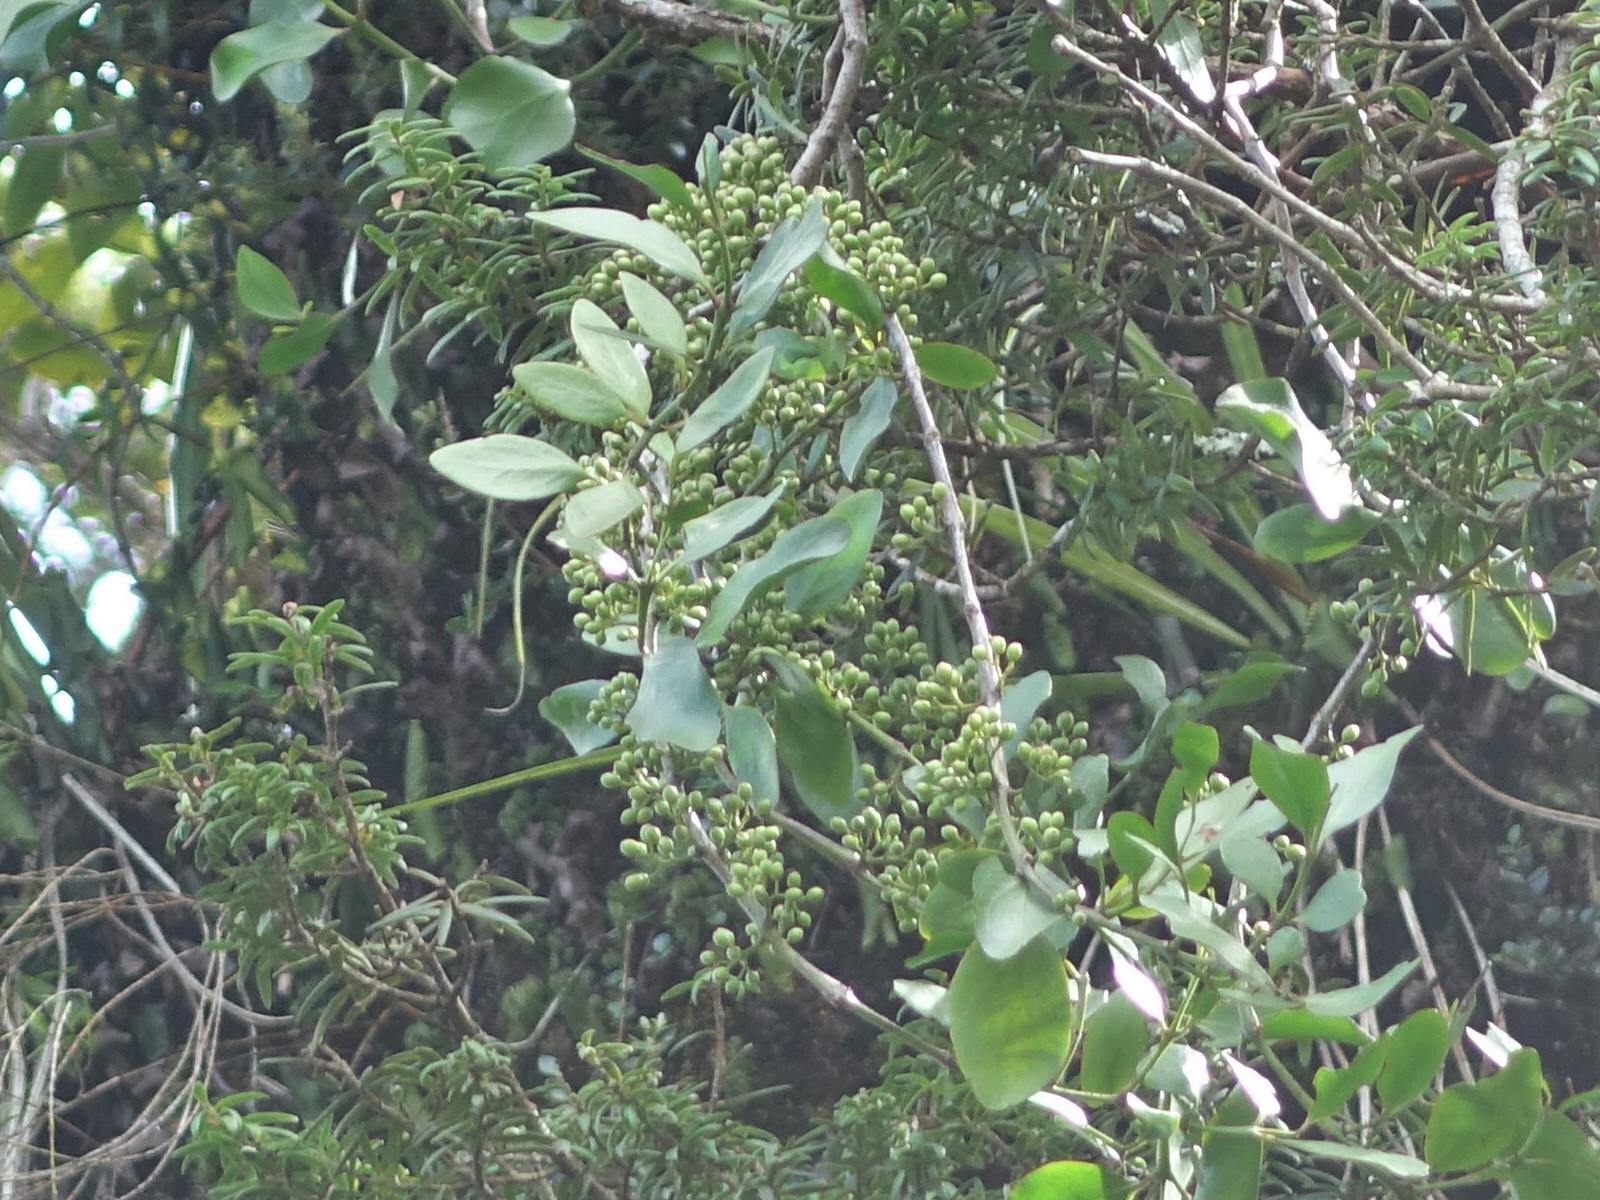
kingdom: Plantae
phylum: Tracheophyta
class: Magnoliopsida
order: Santalales
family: Loranthaceae
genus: Ileostylus
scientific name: Ileostylus micranthus
